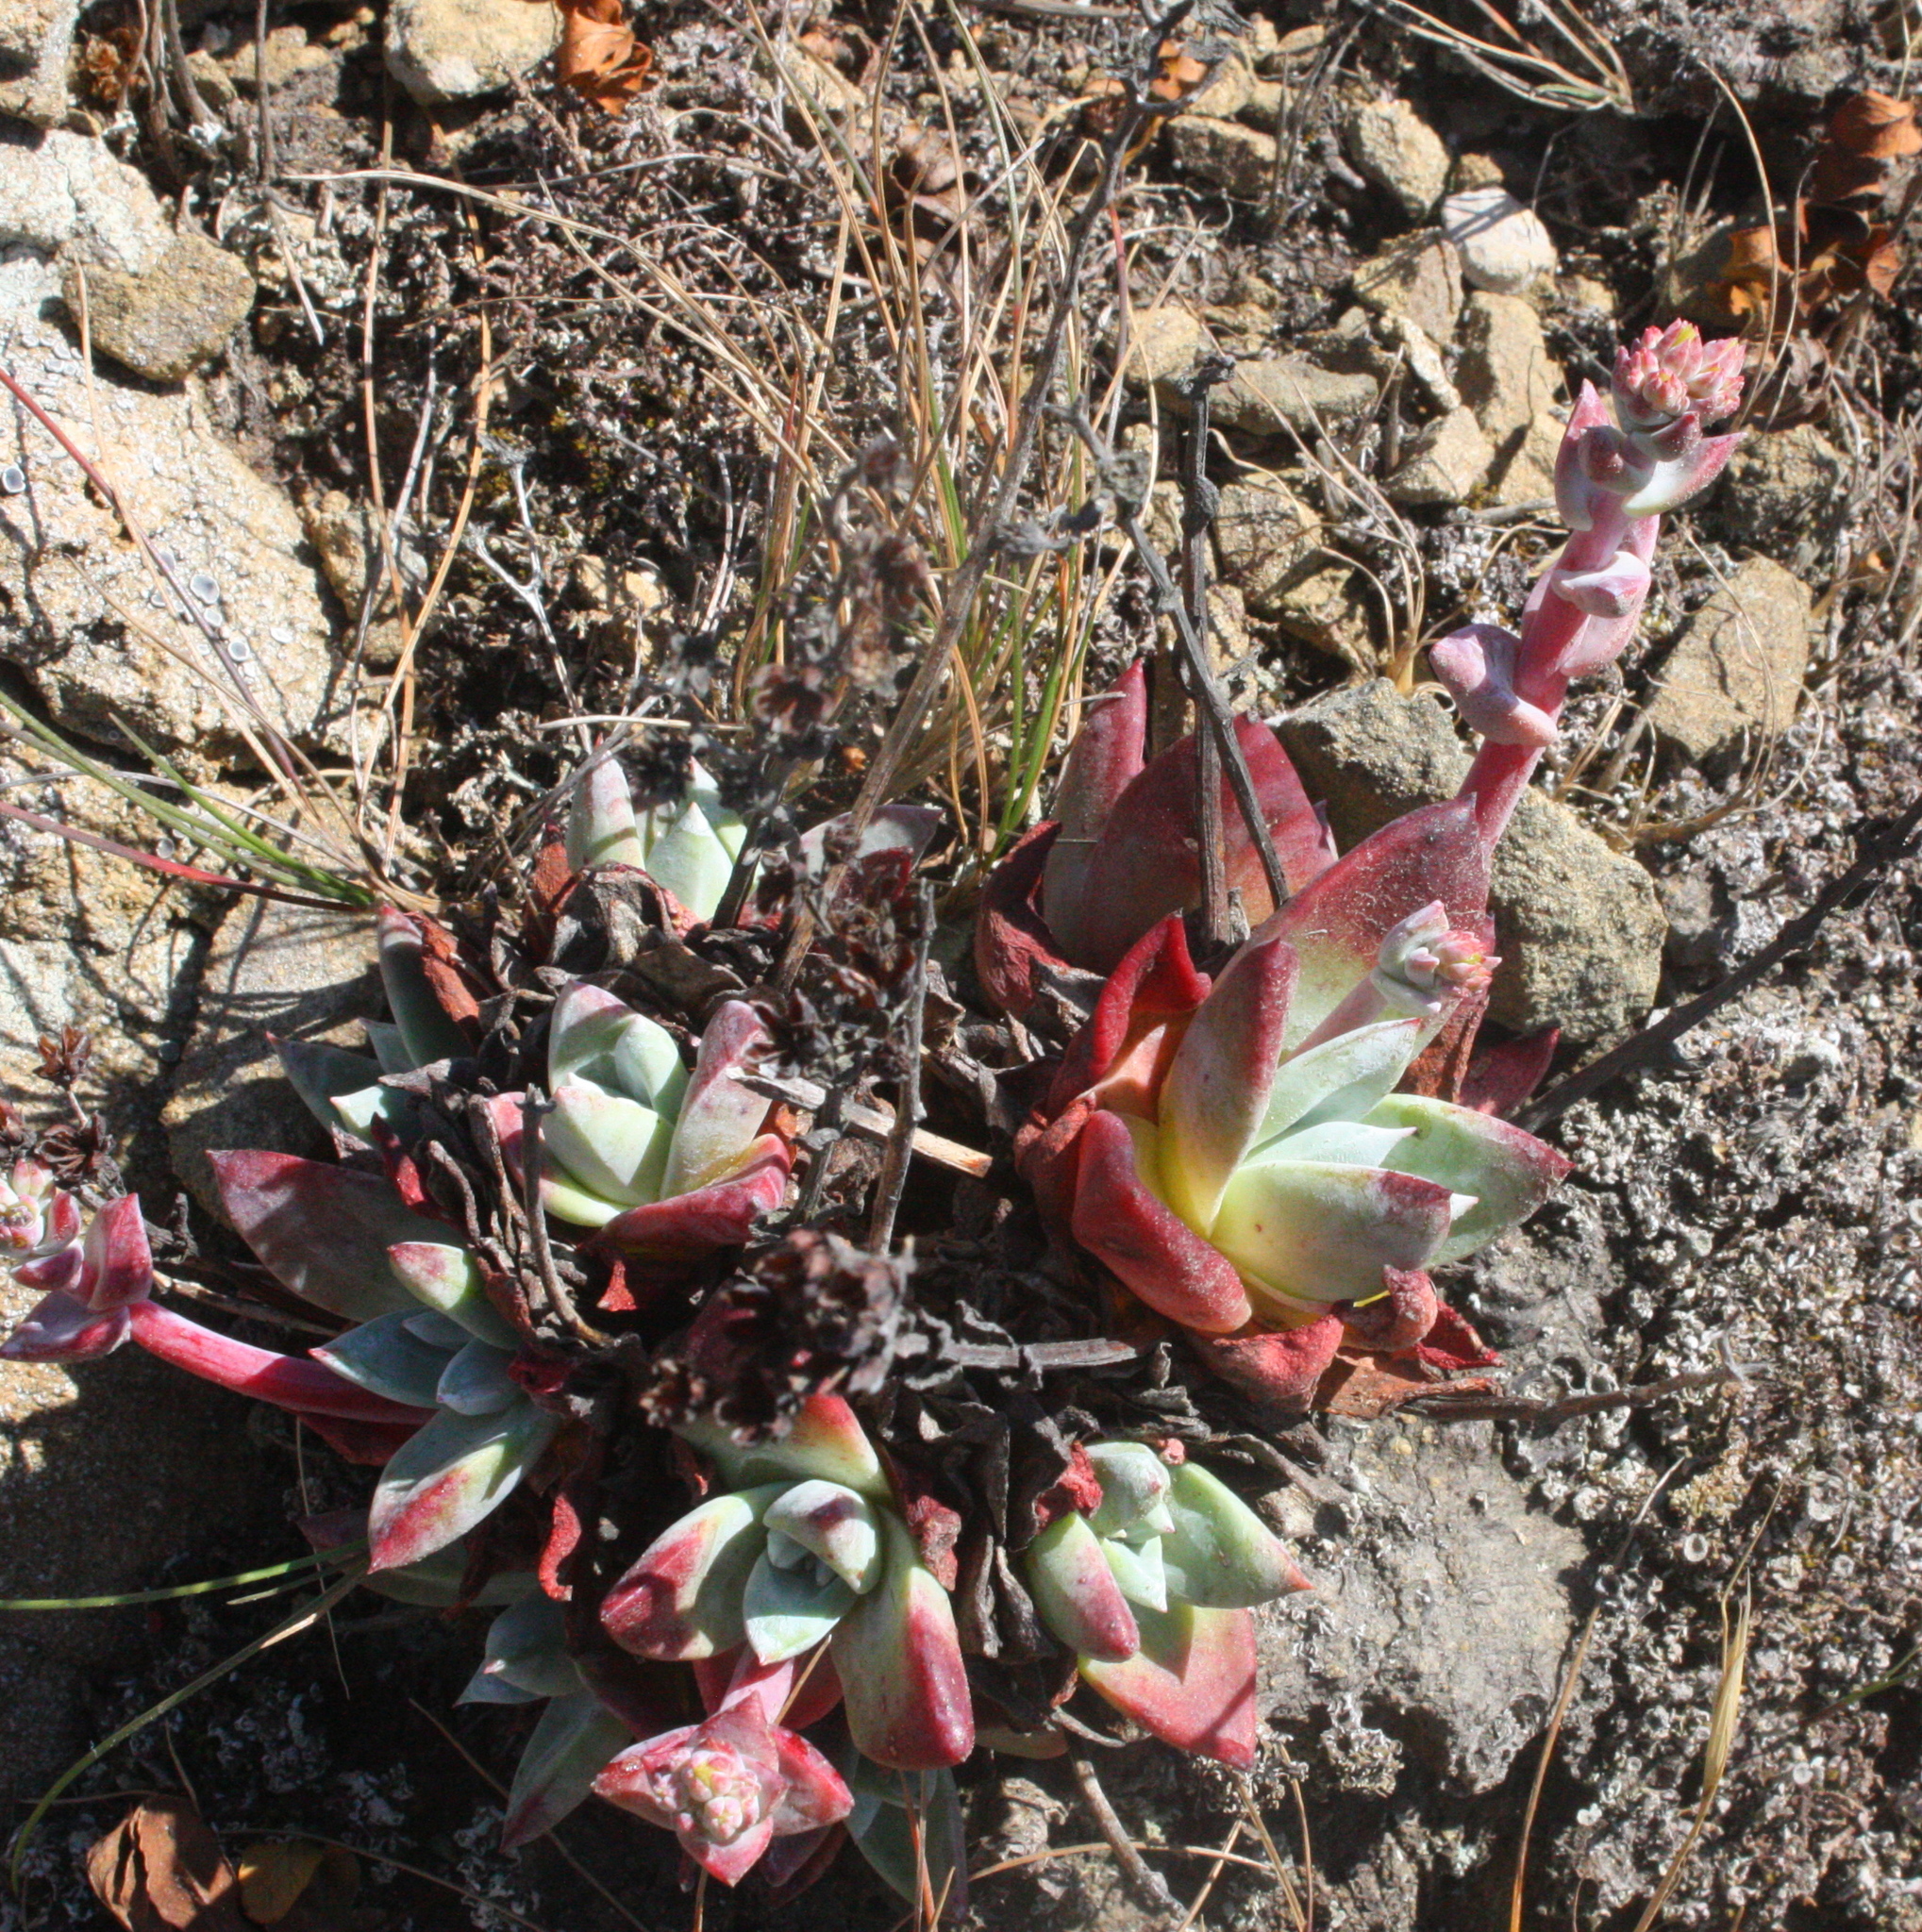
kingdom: Plantae
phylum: Tracheophyta
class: Magnoliopsida
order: Saxifragales
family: Crassulaceae
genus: Dudleya
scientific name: Dudleya farinosa
